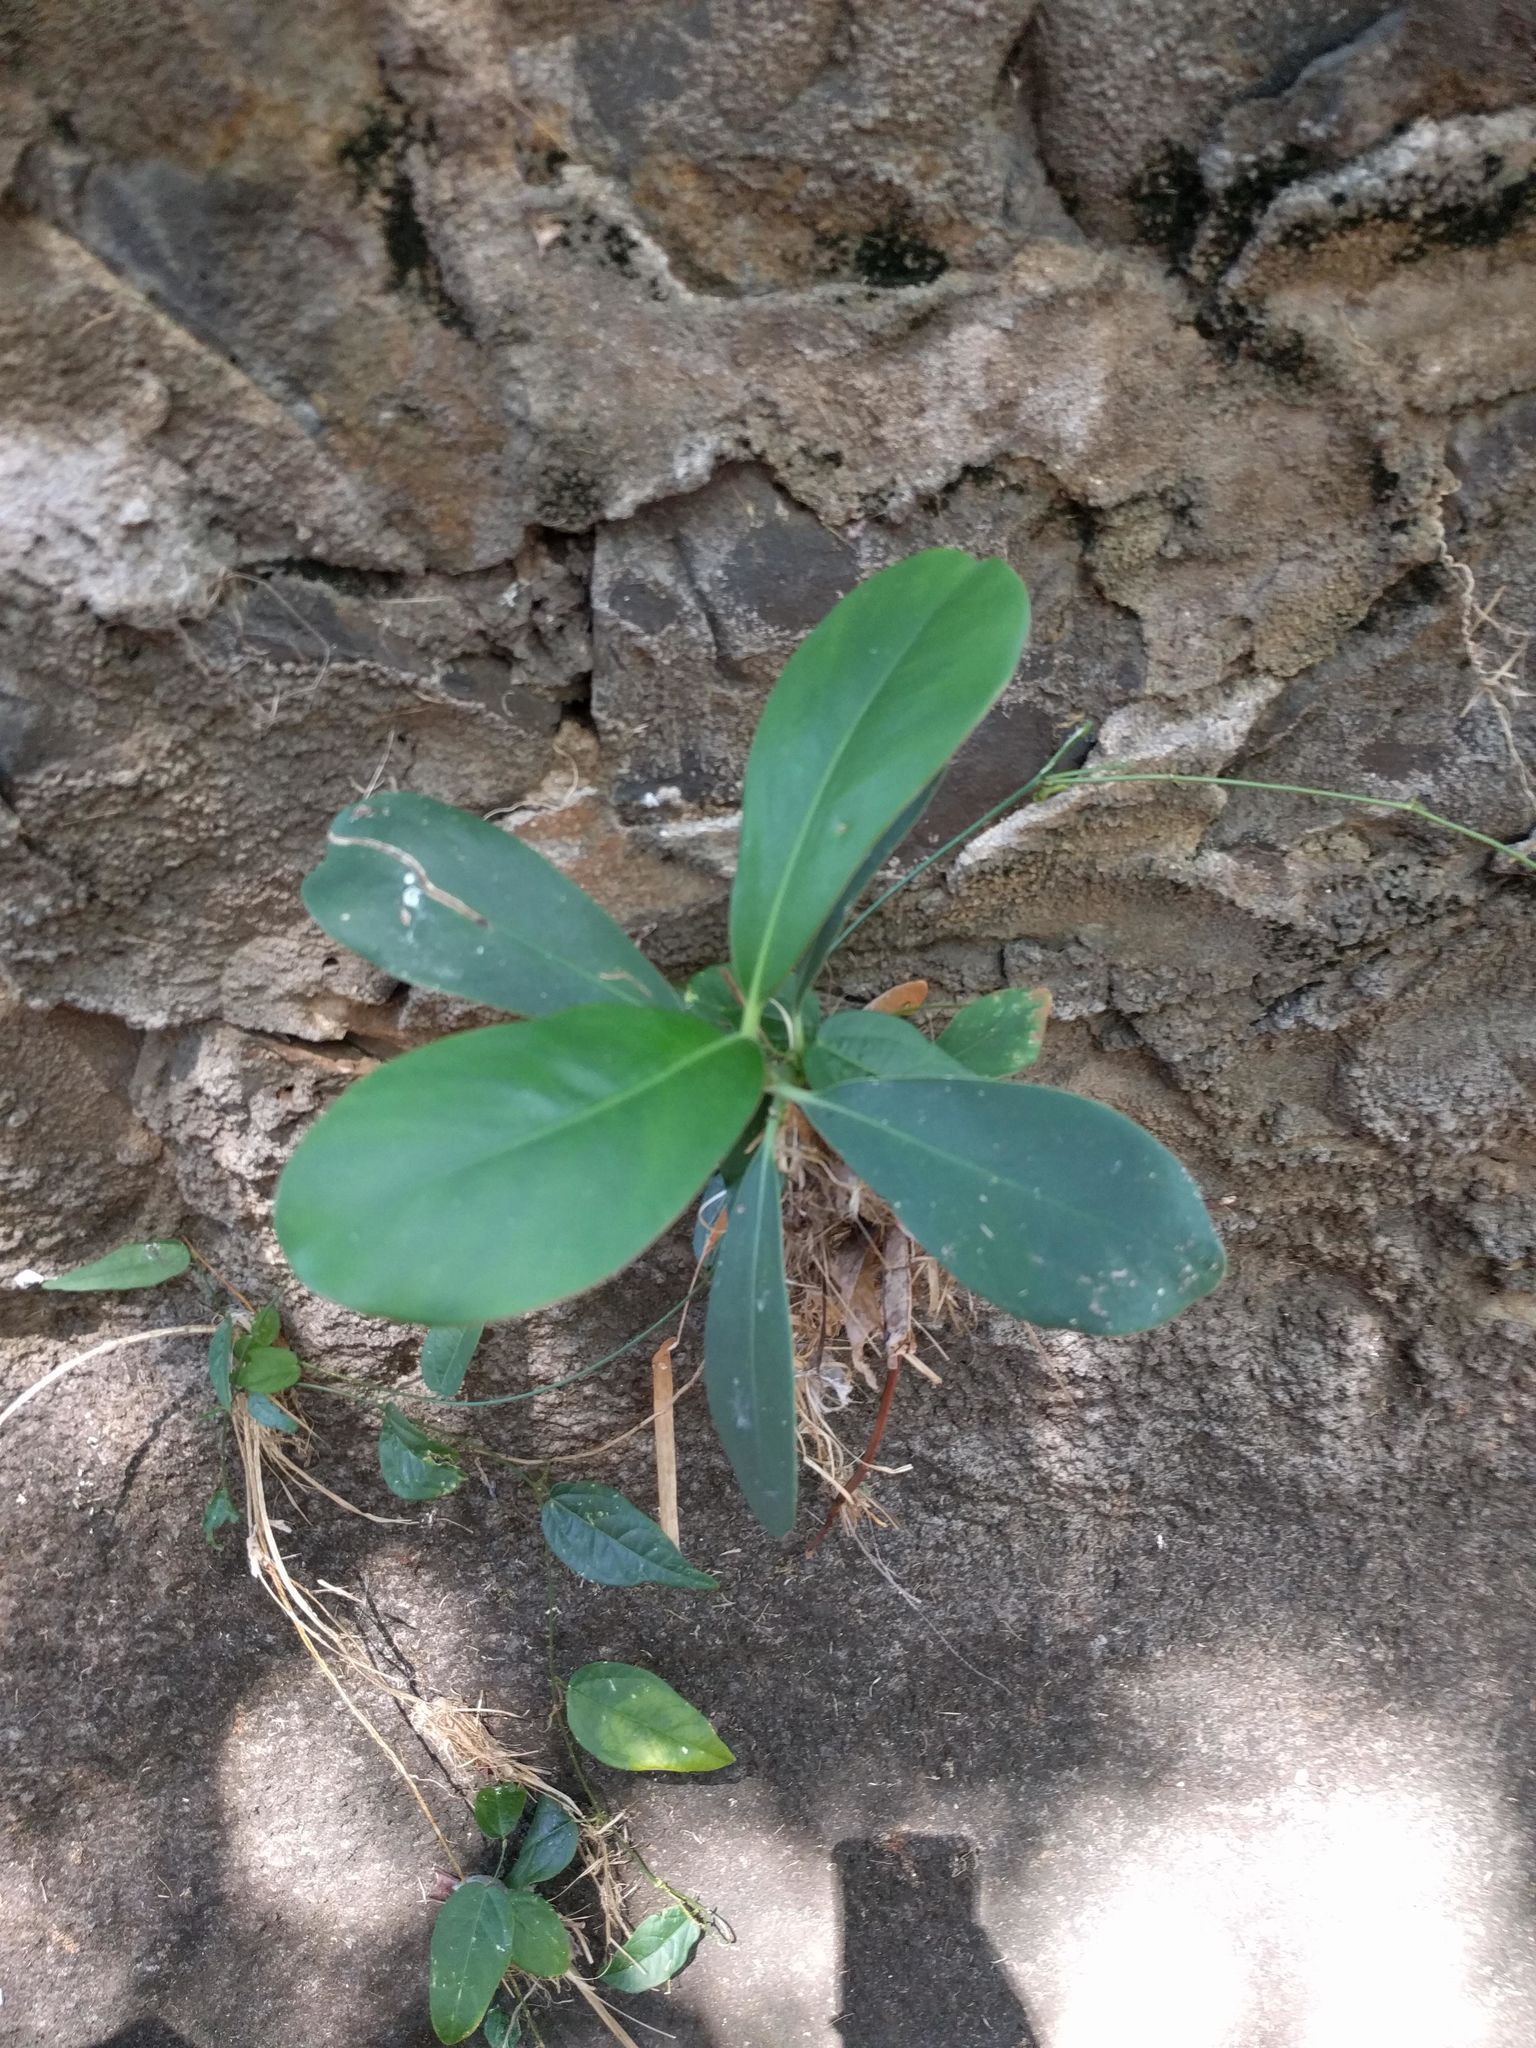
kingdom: Plantae
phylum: Tracheophyta
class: Magnoliopsida
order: Malpighiales
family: Clusiaceae
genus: Clusia
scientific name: Clusia rosea
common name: Scotch attorney
